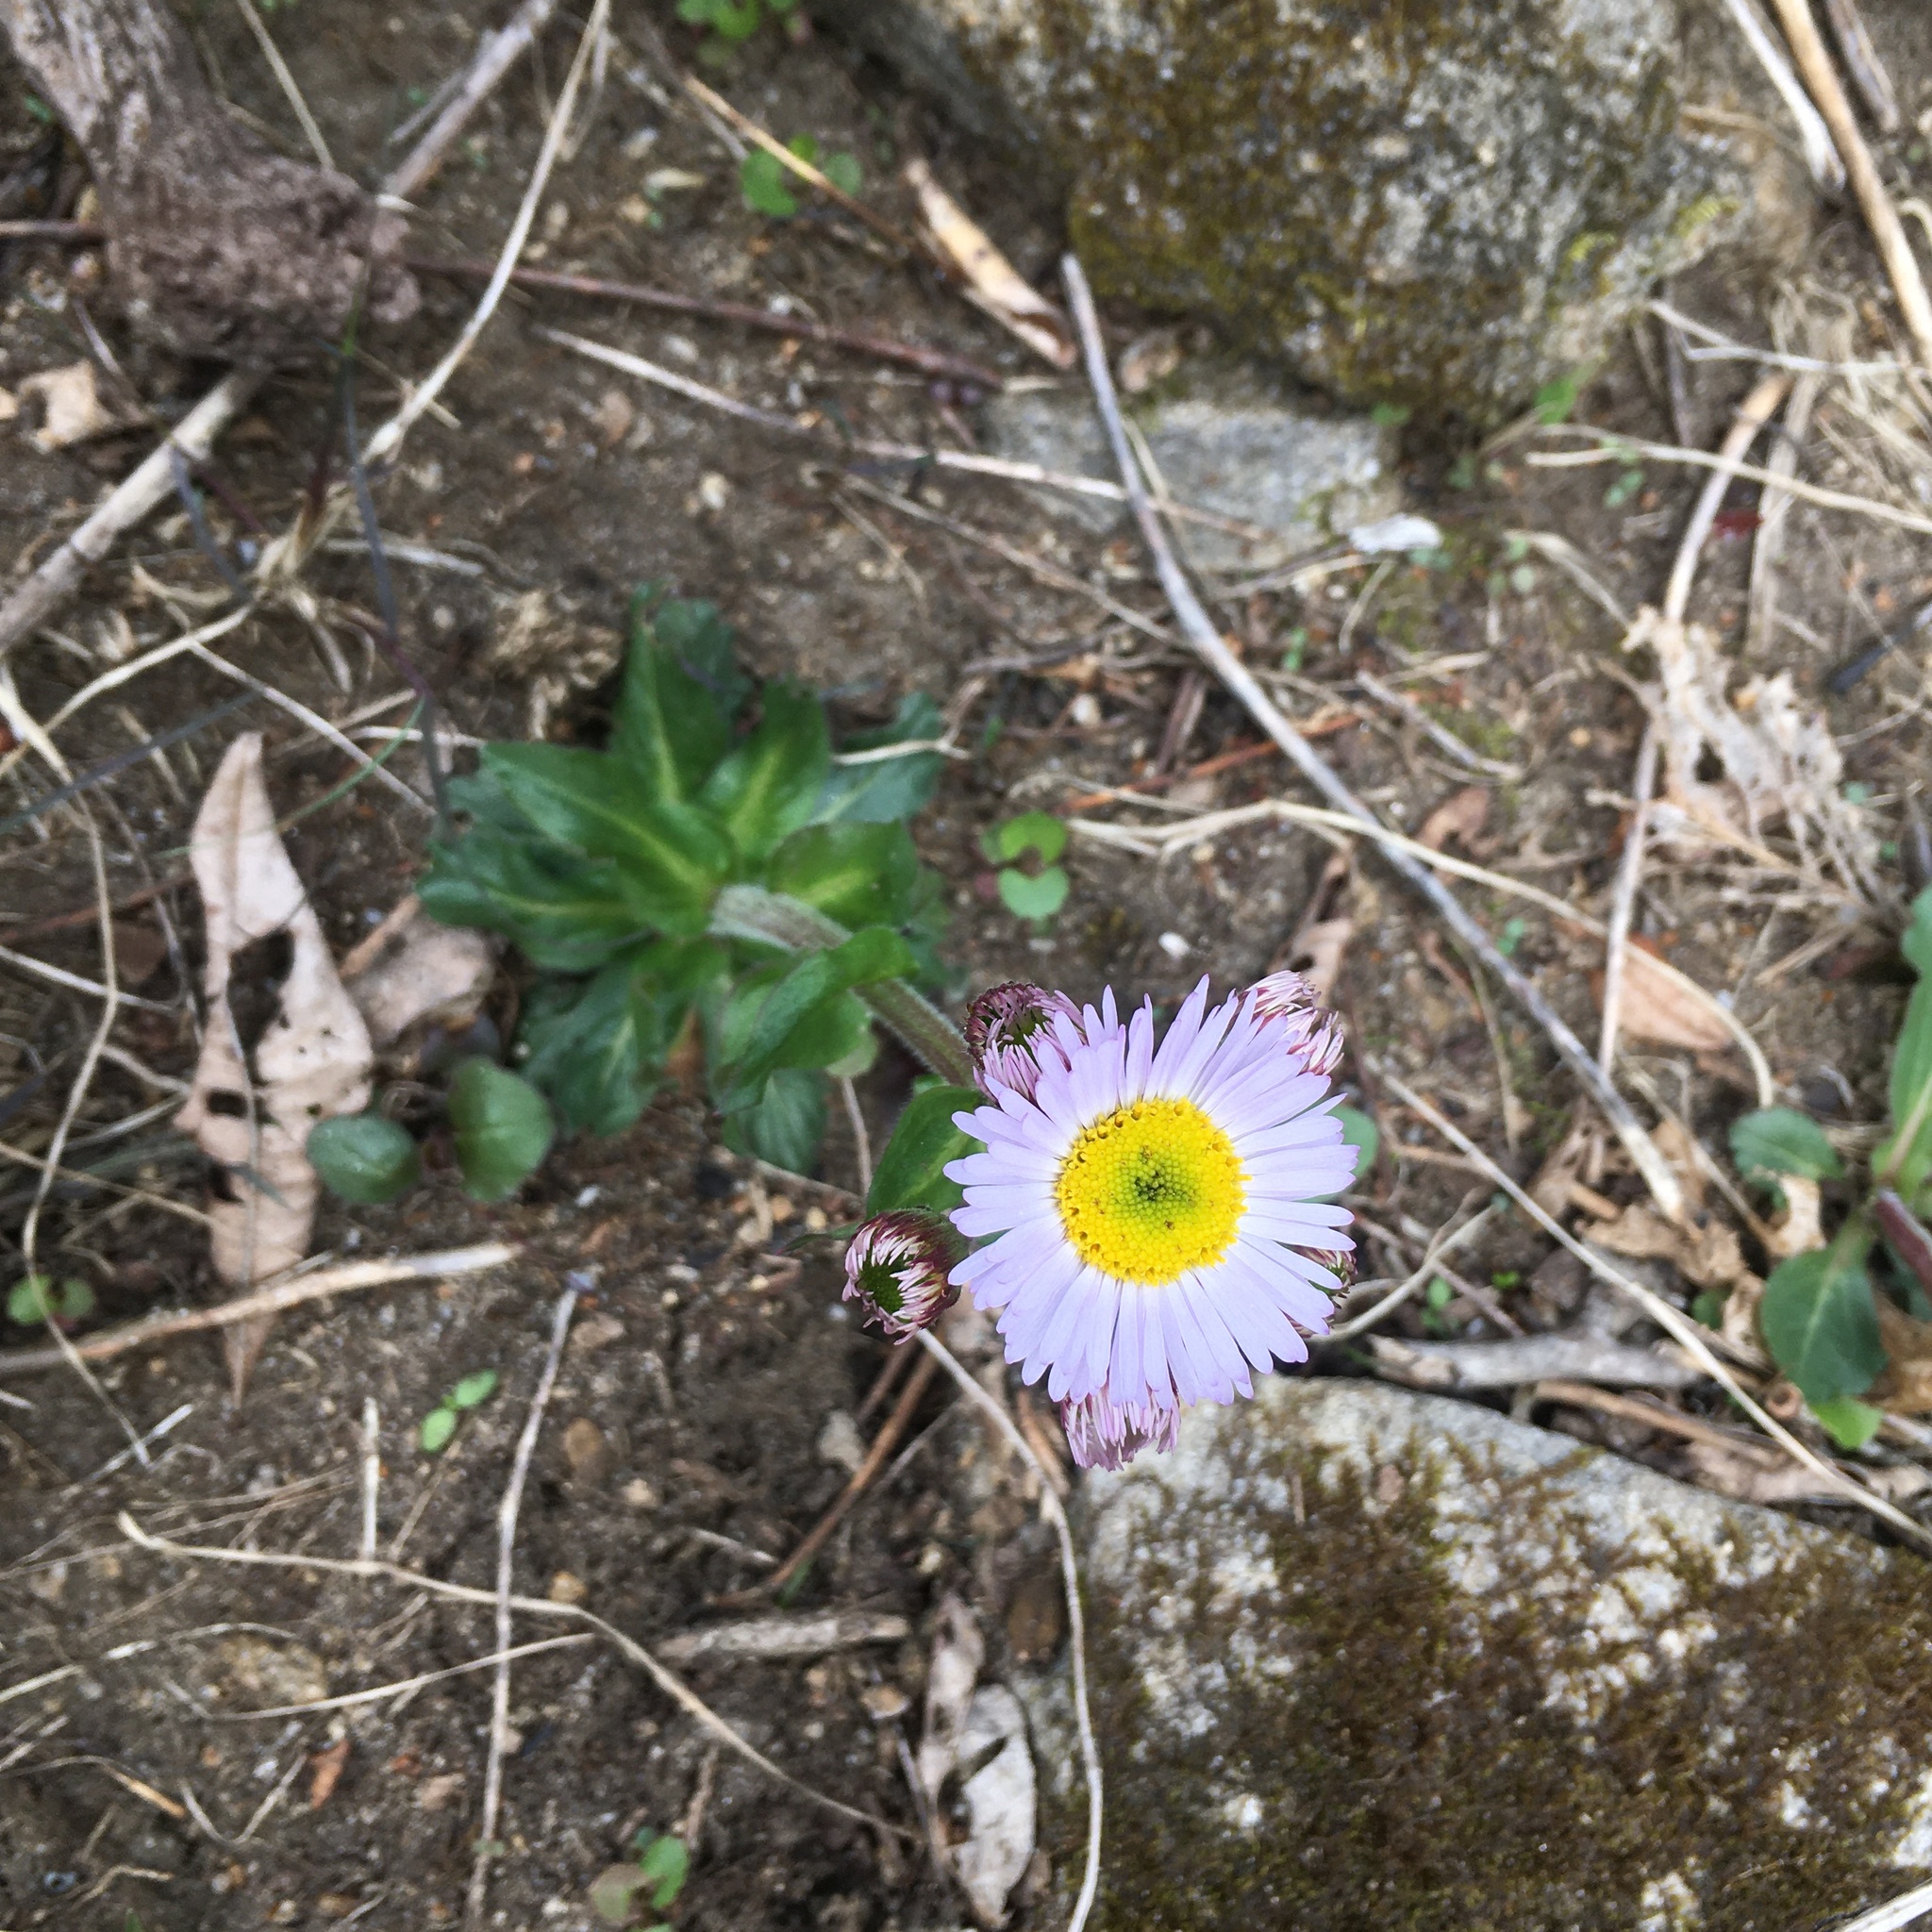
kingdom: Plantae
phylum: Tracheophyta
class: Magnoliopsida
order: Asterales
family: Asteraceae
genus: Erigeron
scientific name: Erigeron pulchellus
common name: Hairy fleabane
